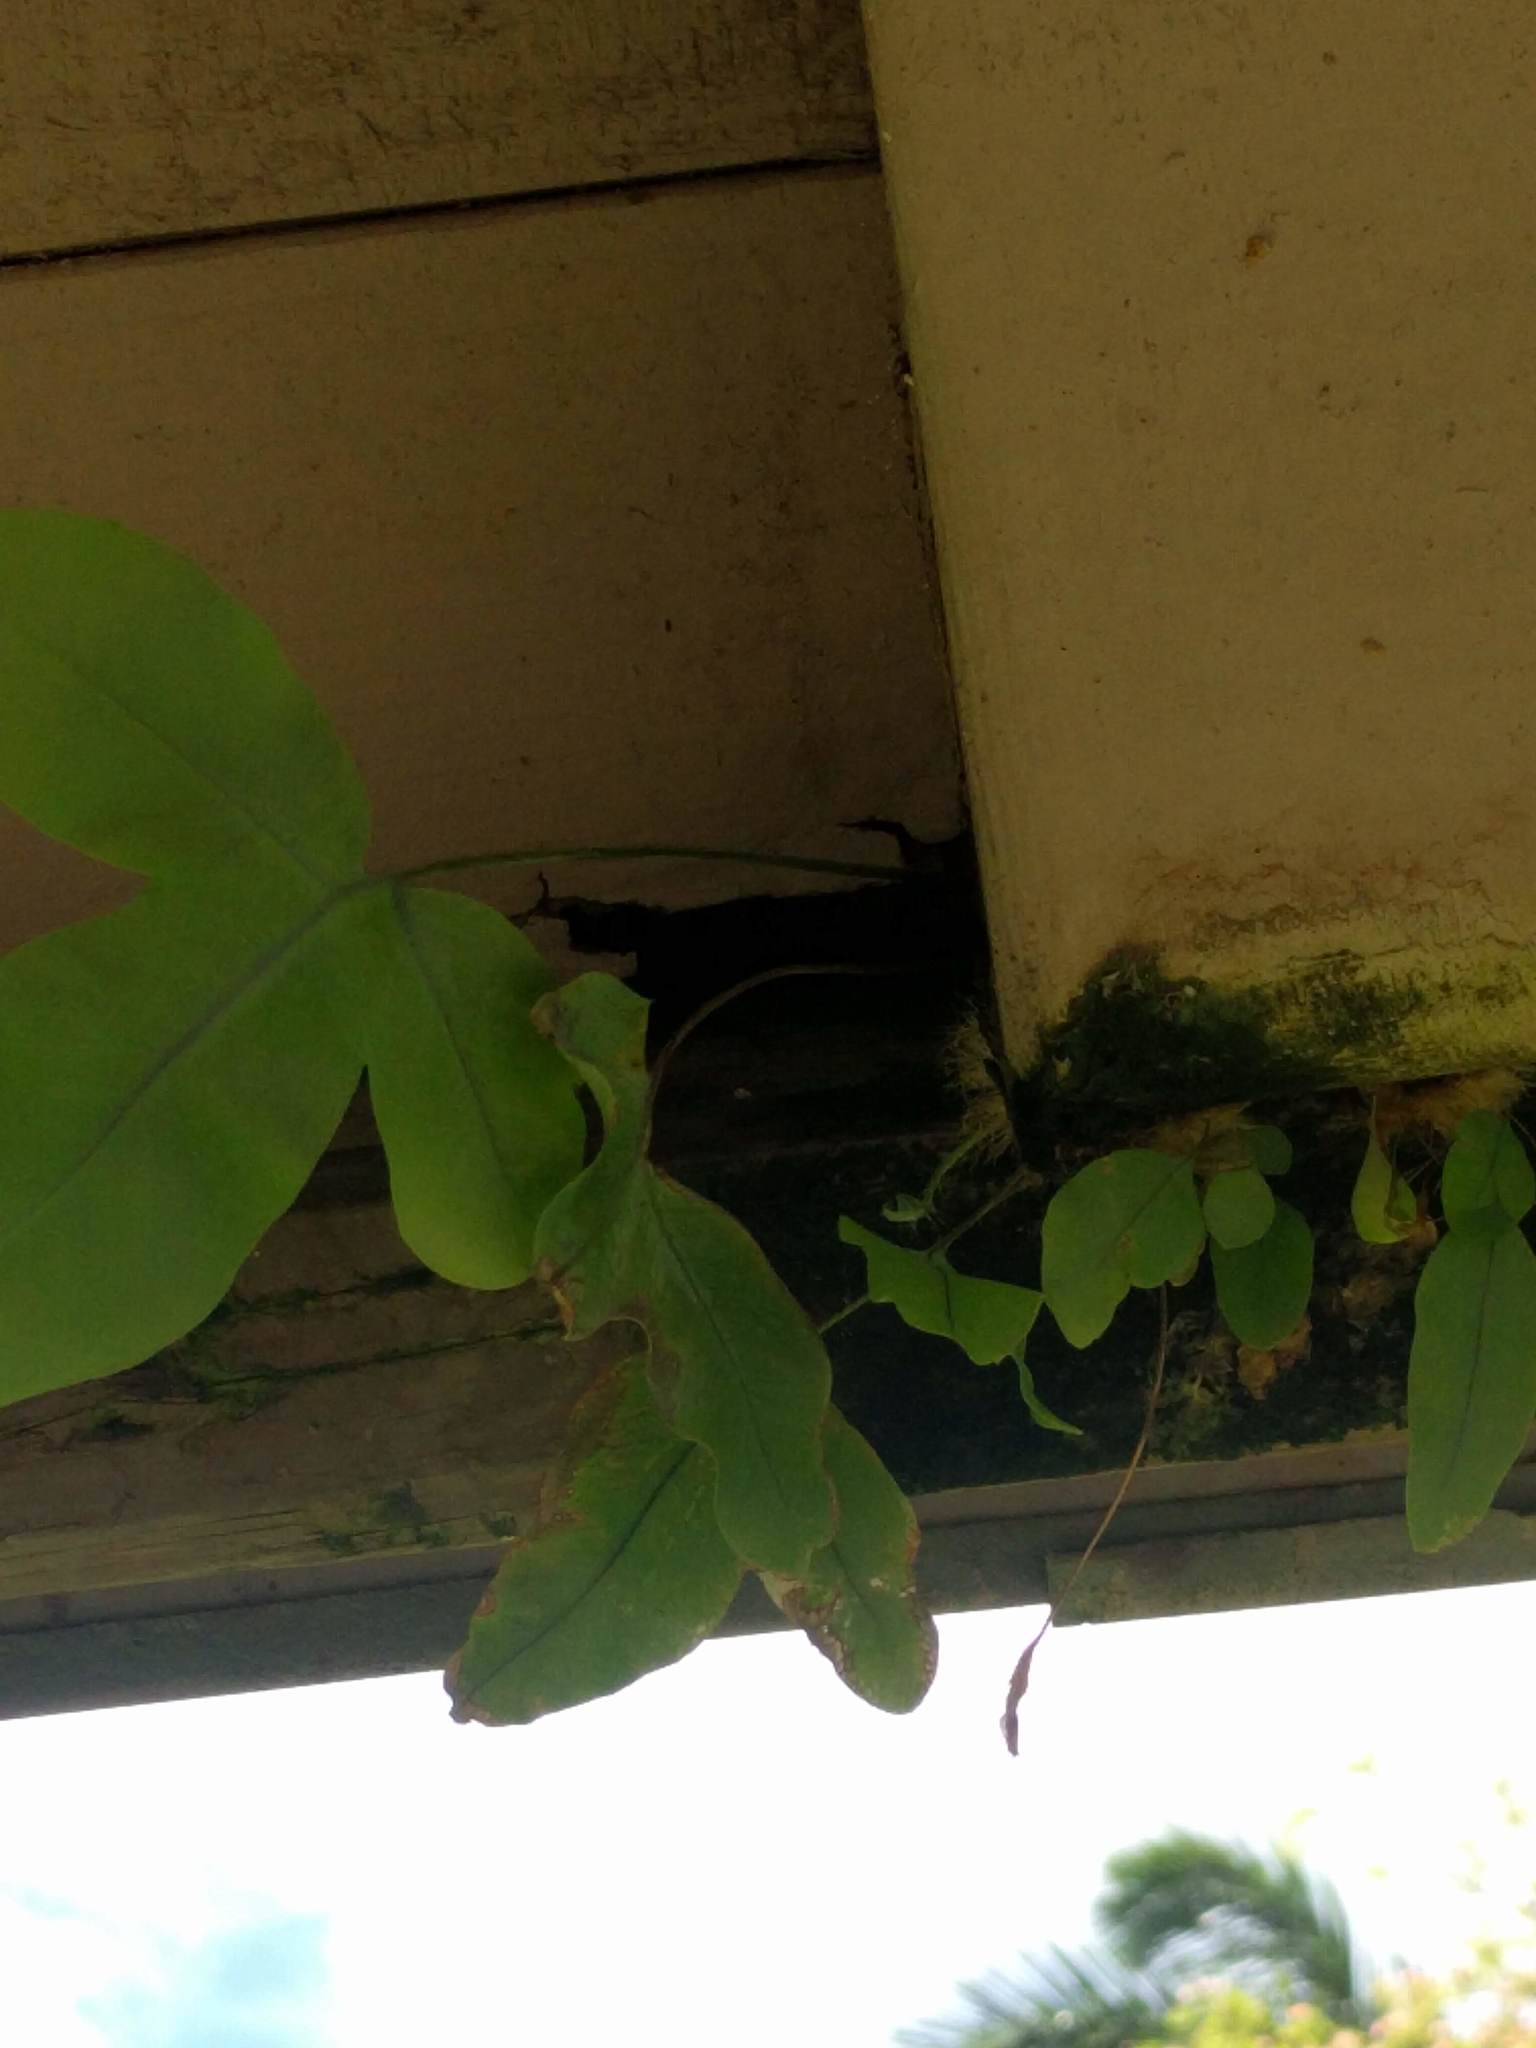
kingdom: Plantae
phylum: Tracheophyta
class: Polypodiopsida
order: Polypodiales
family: Polypodiaceae
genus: Phlebodium
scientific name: Phlebodium aureum
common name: Gold-foot fern
